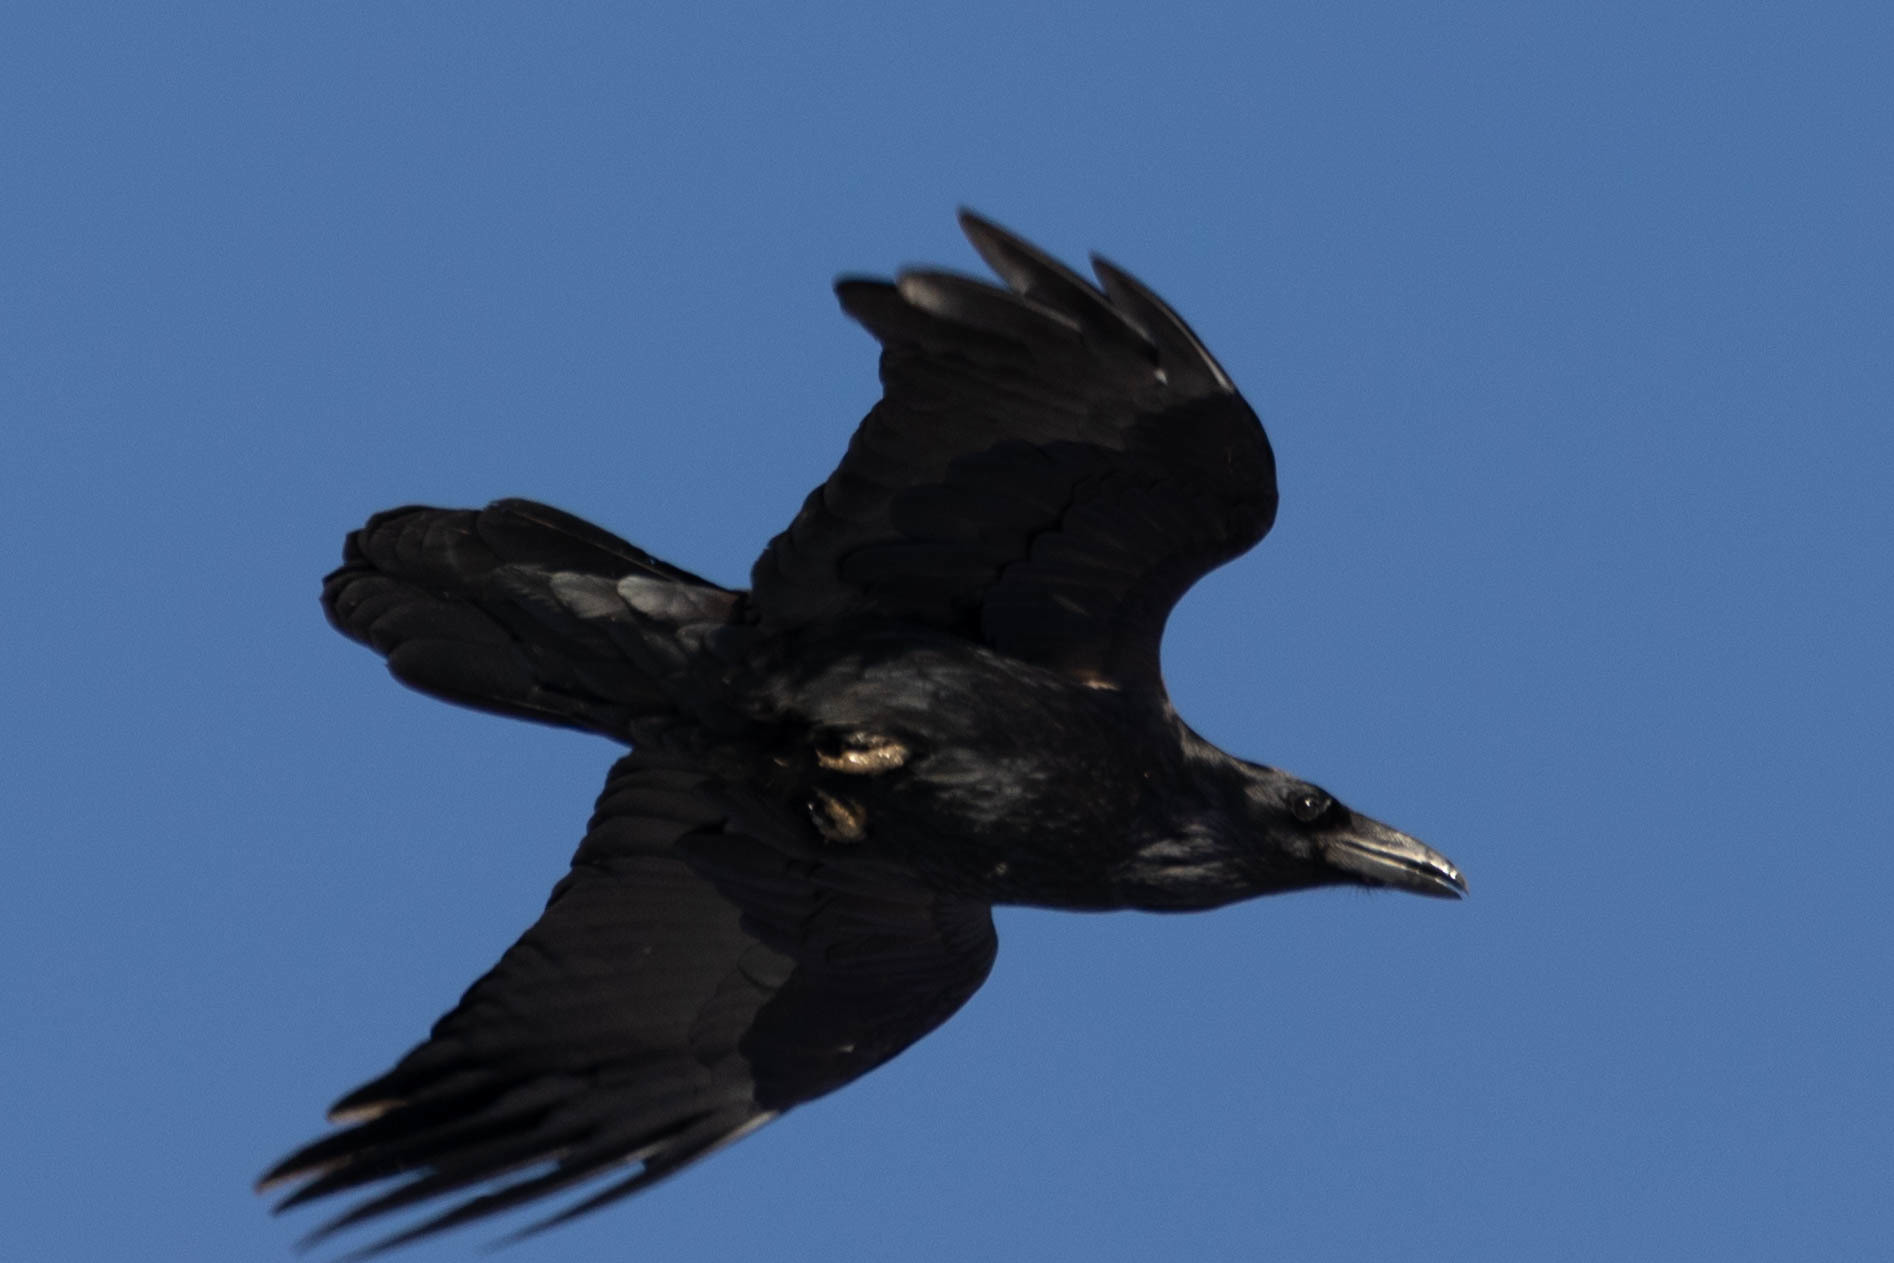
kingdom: Animalia
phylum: Chordata
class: Aves
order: Passeriformes
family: Corvidae
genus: Corvus
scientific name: Corvus corax
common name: Common raven
